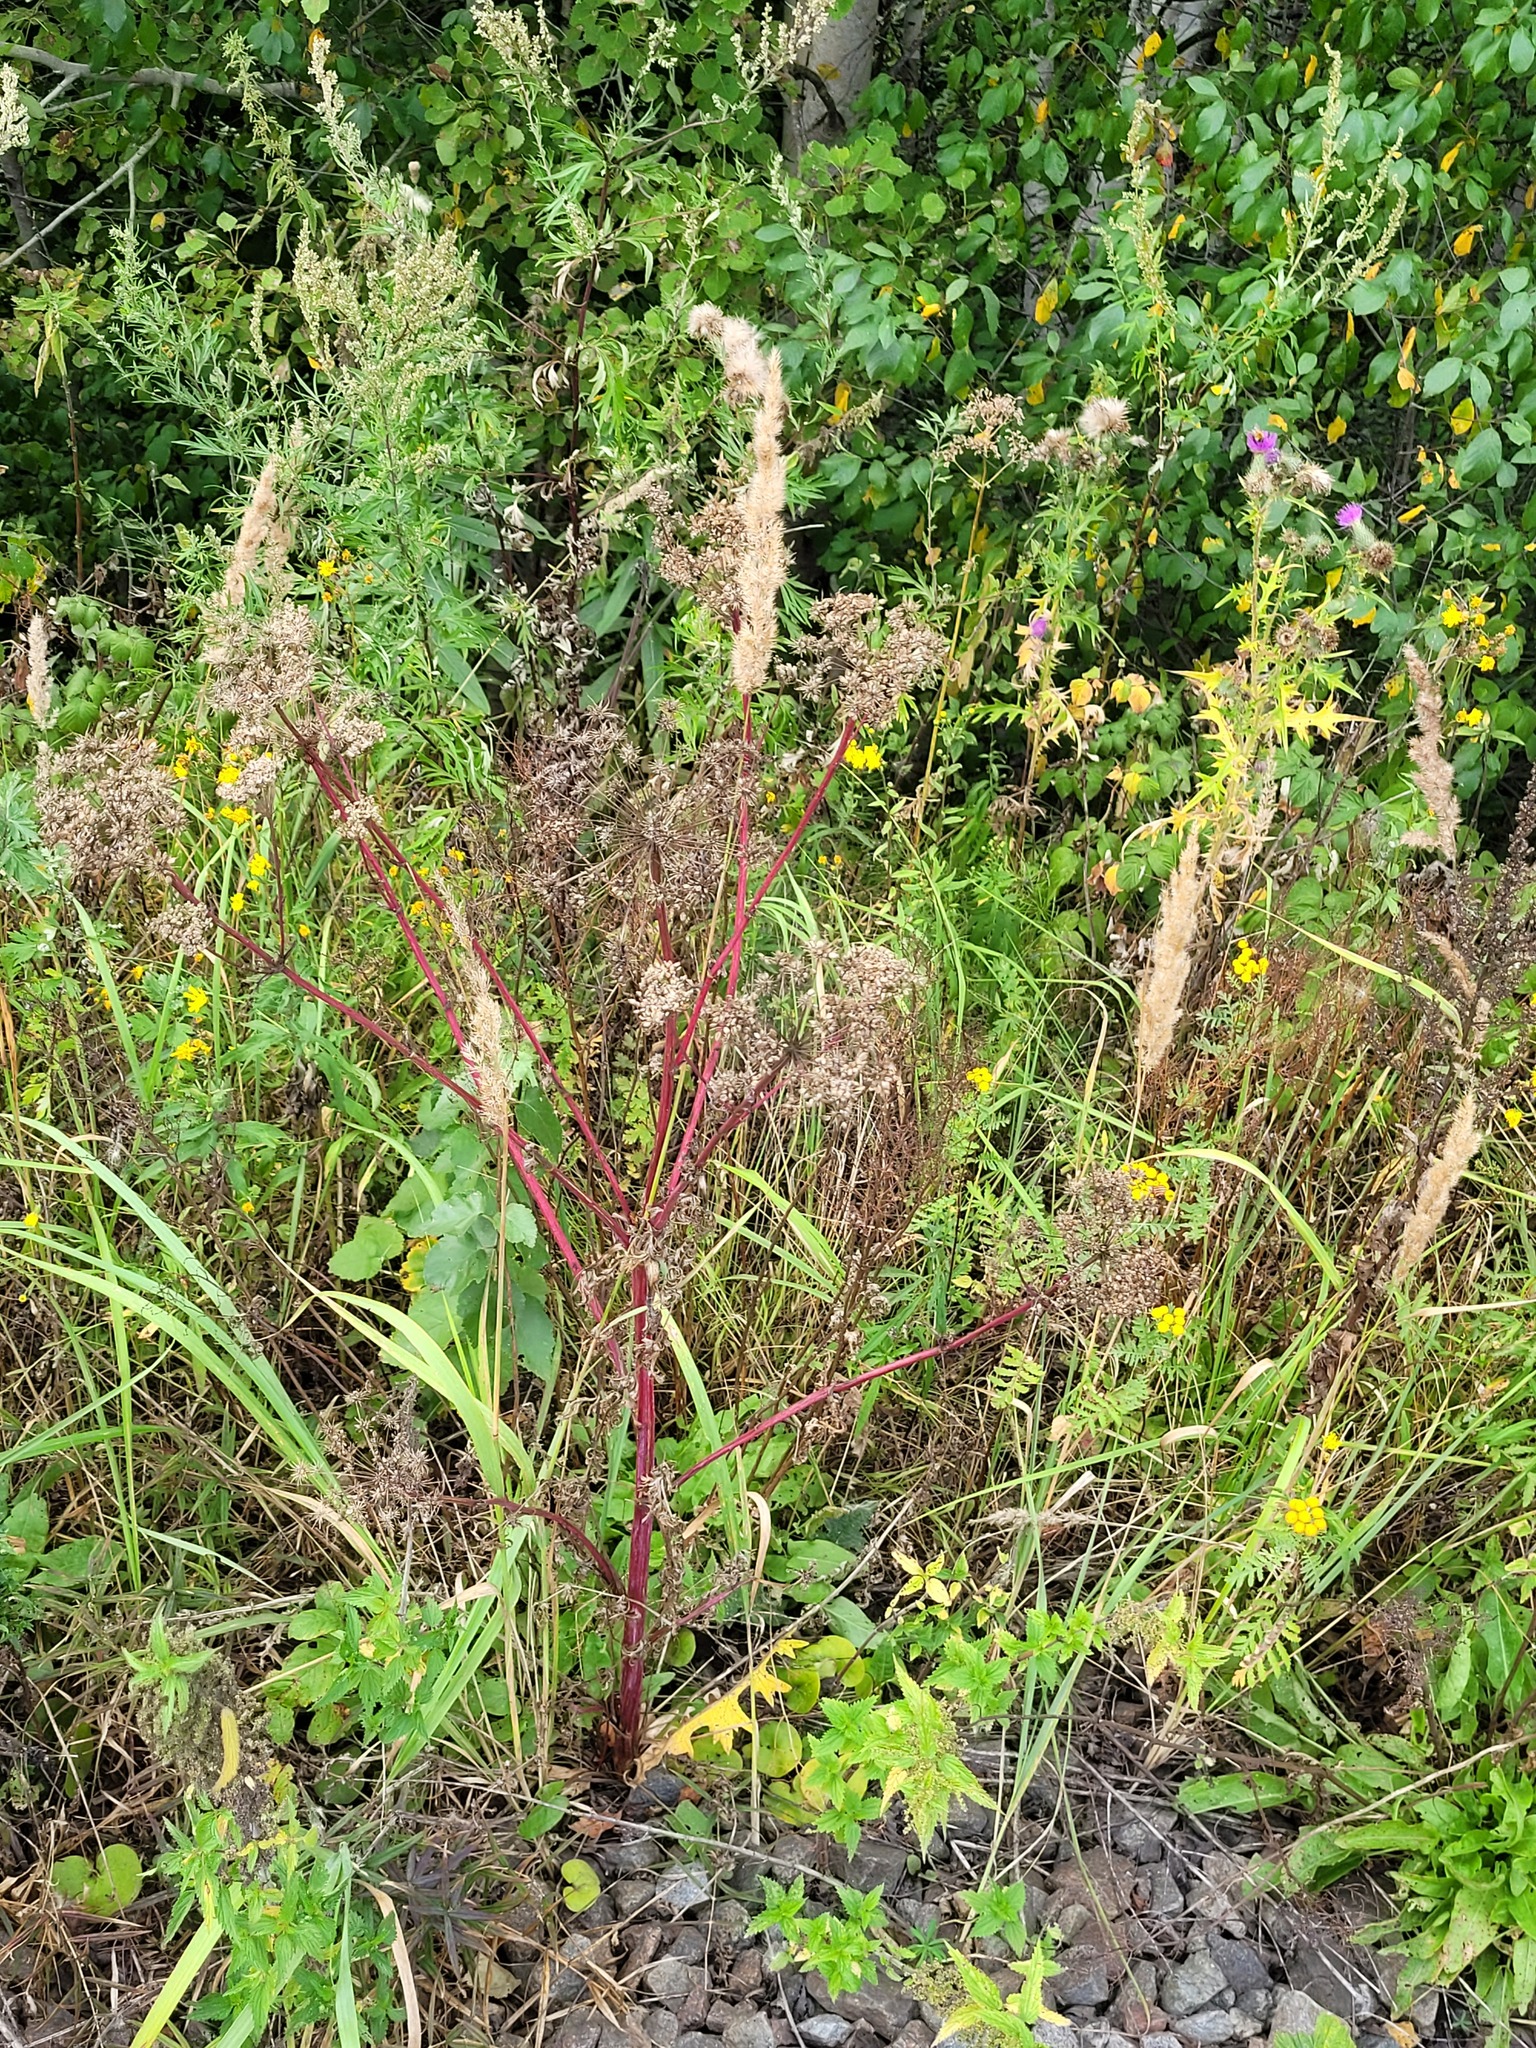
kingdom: Plantae
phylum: Tracheophyta
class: Magnoliopsida
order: Apiales
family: Apiaceae
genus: Seseli
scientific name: Seseli libanotis
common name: Mooncarrot
